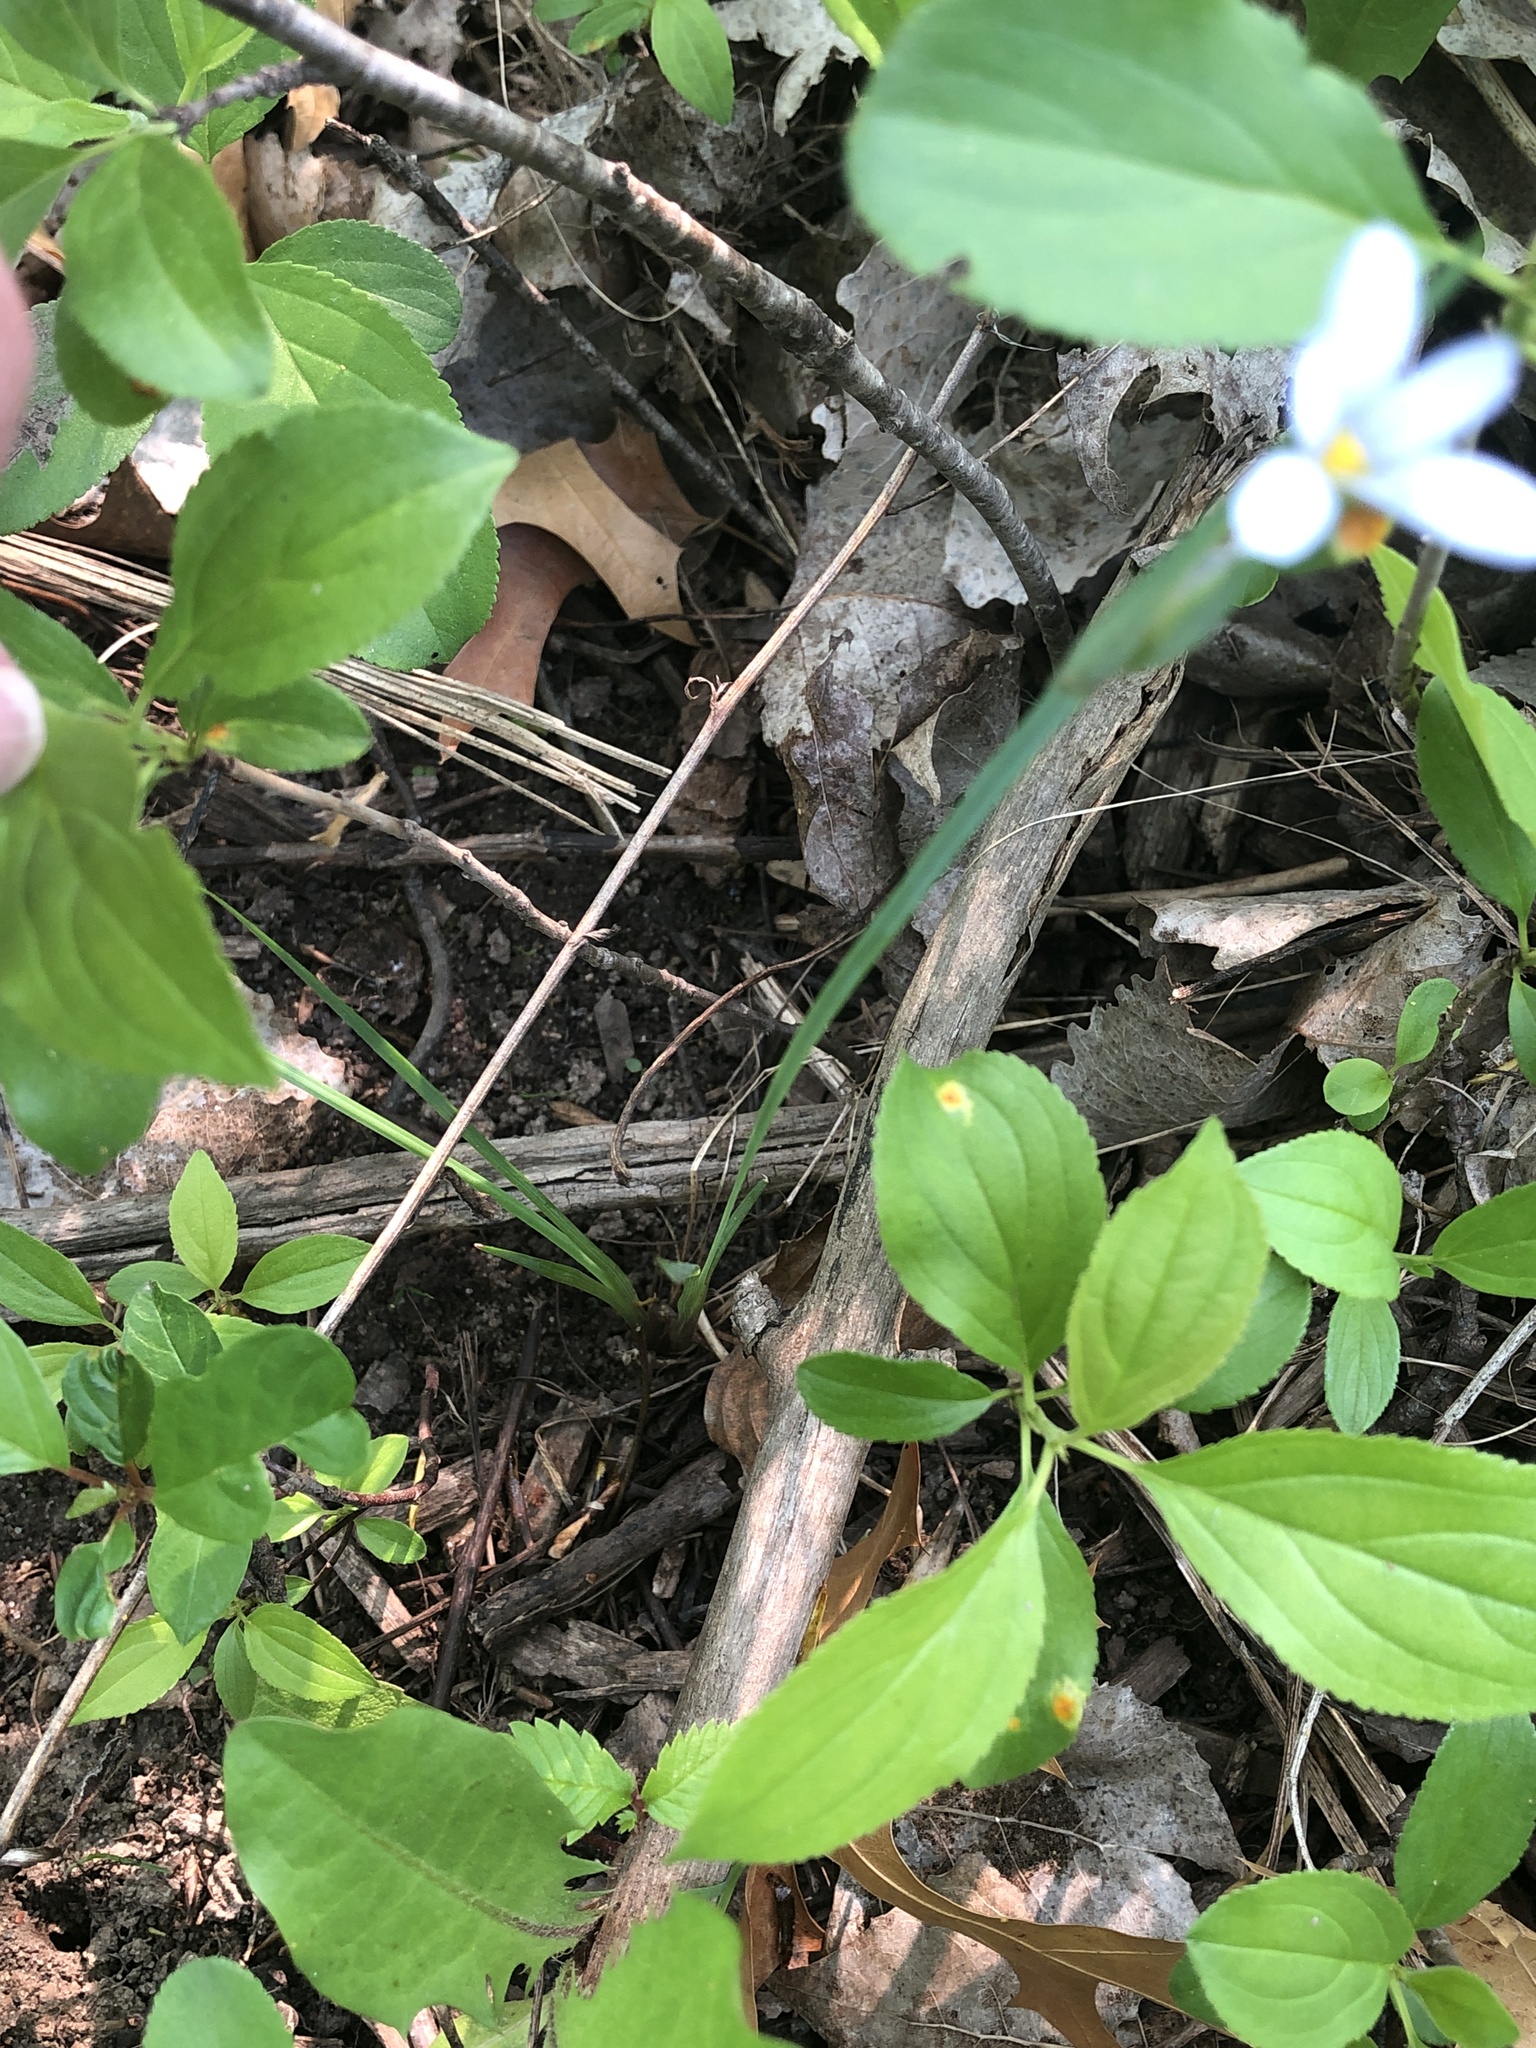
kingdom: Plantae
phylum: Tracheophyta
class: Liliopsida
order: Asparagales
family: Iridaceae
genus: Sisyrinchium
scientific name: Sisyrinchium campestre
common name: Prairie blue-eyed-grass
